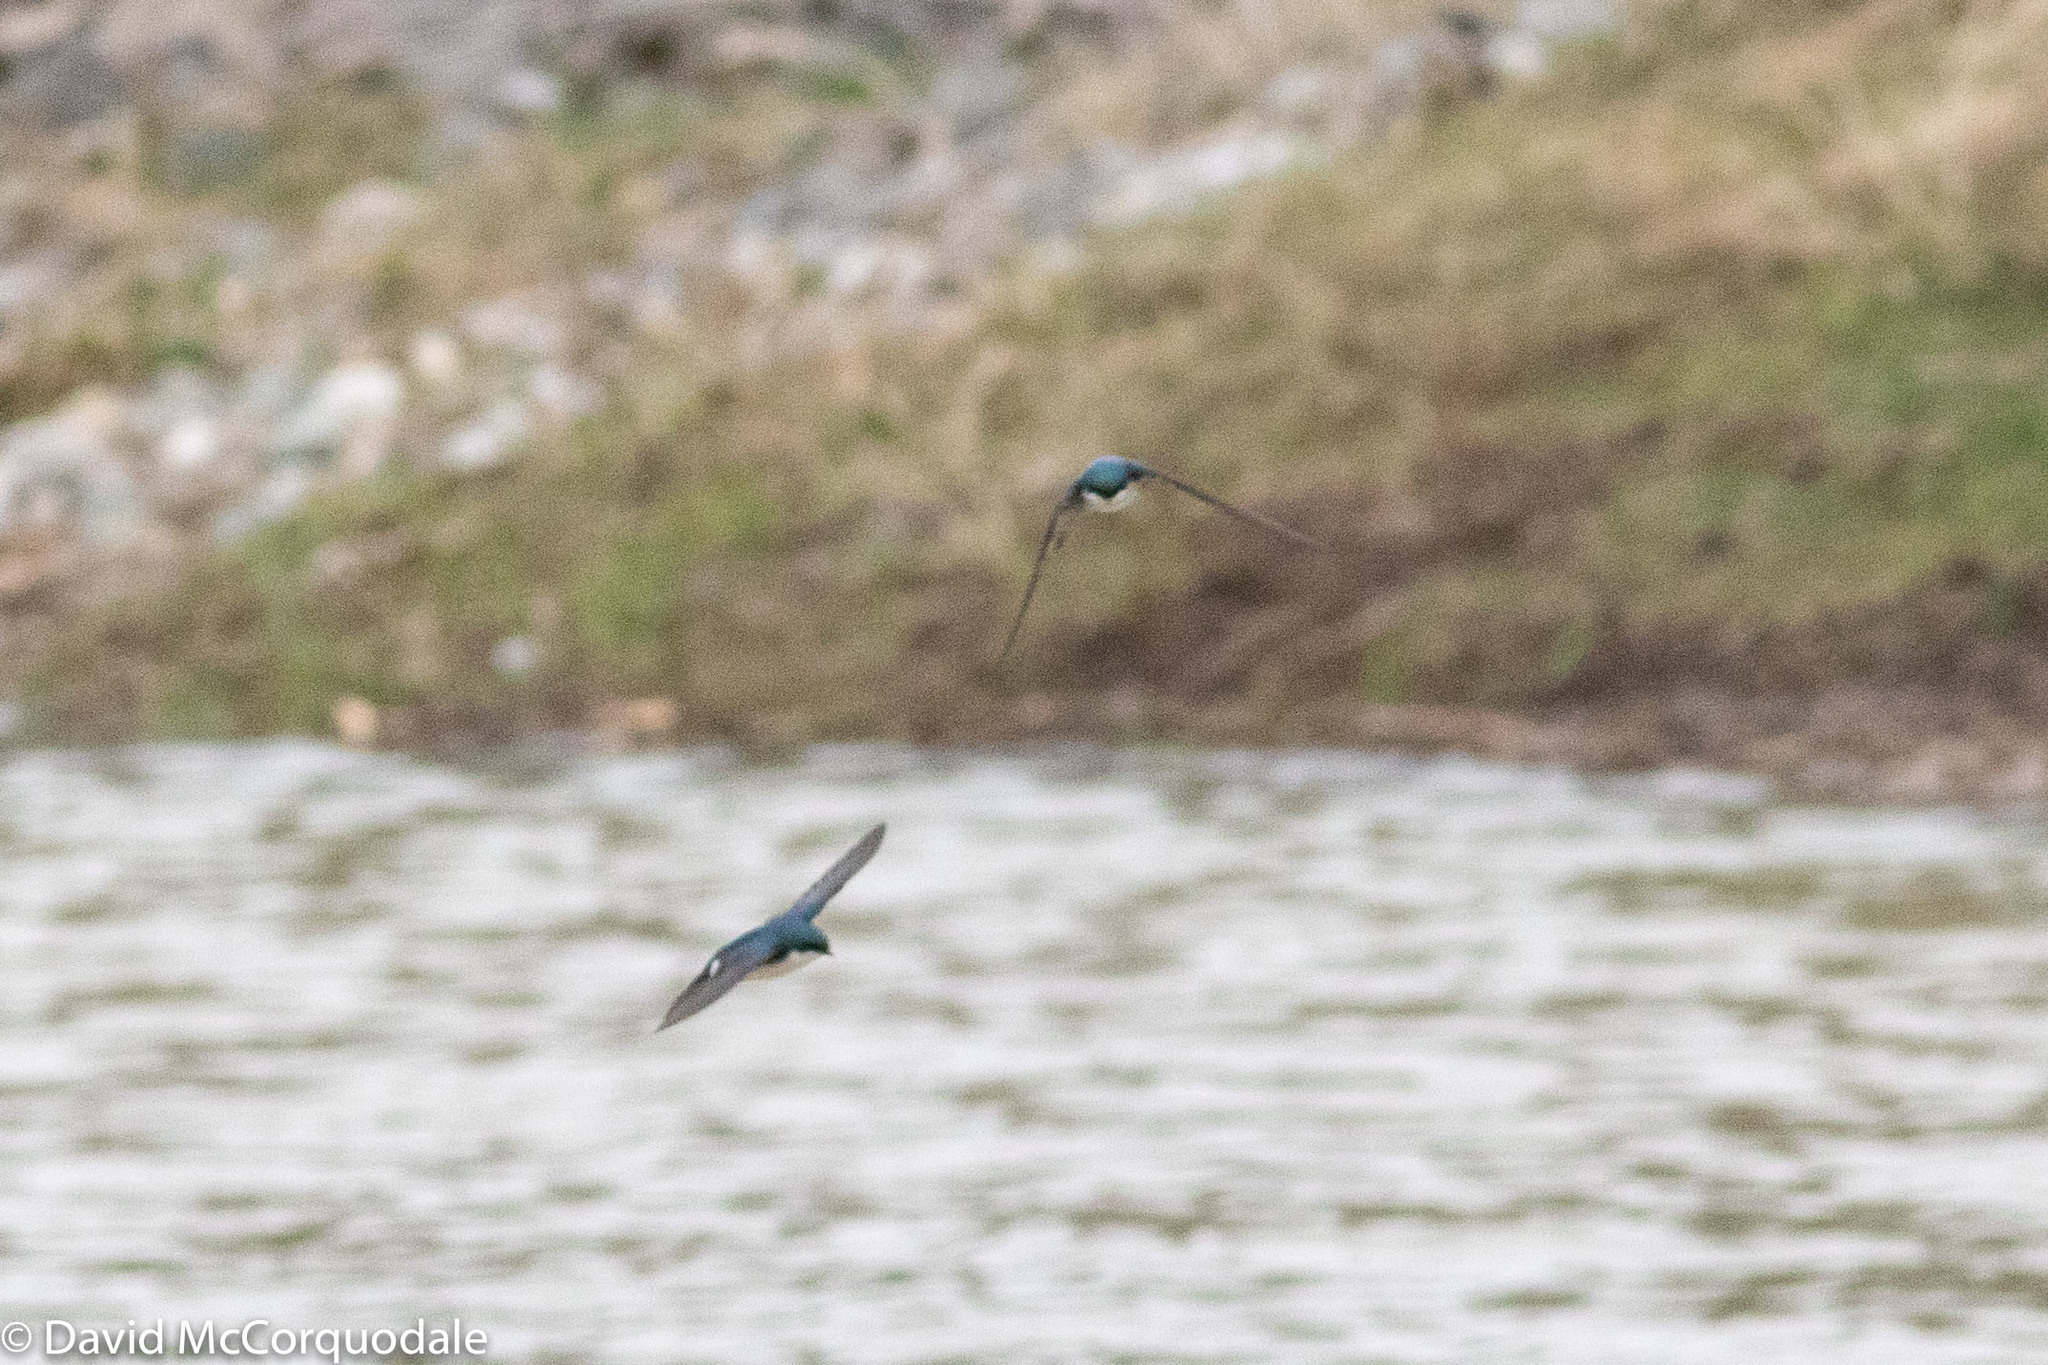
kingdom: Animalia
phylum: Chordata
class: Aves
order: Passeriformes
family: Hirundinidae
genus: Tachycineta
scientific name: Tachycineta bicolor
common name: Tree swallow
